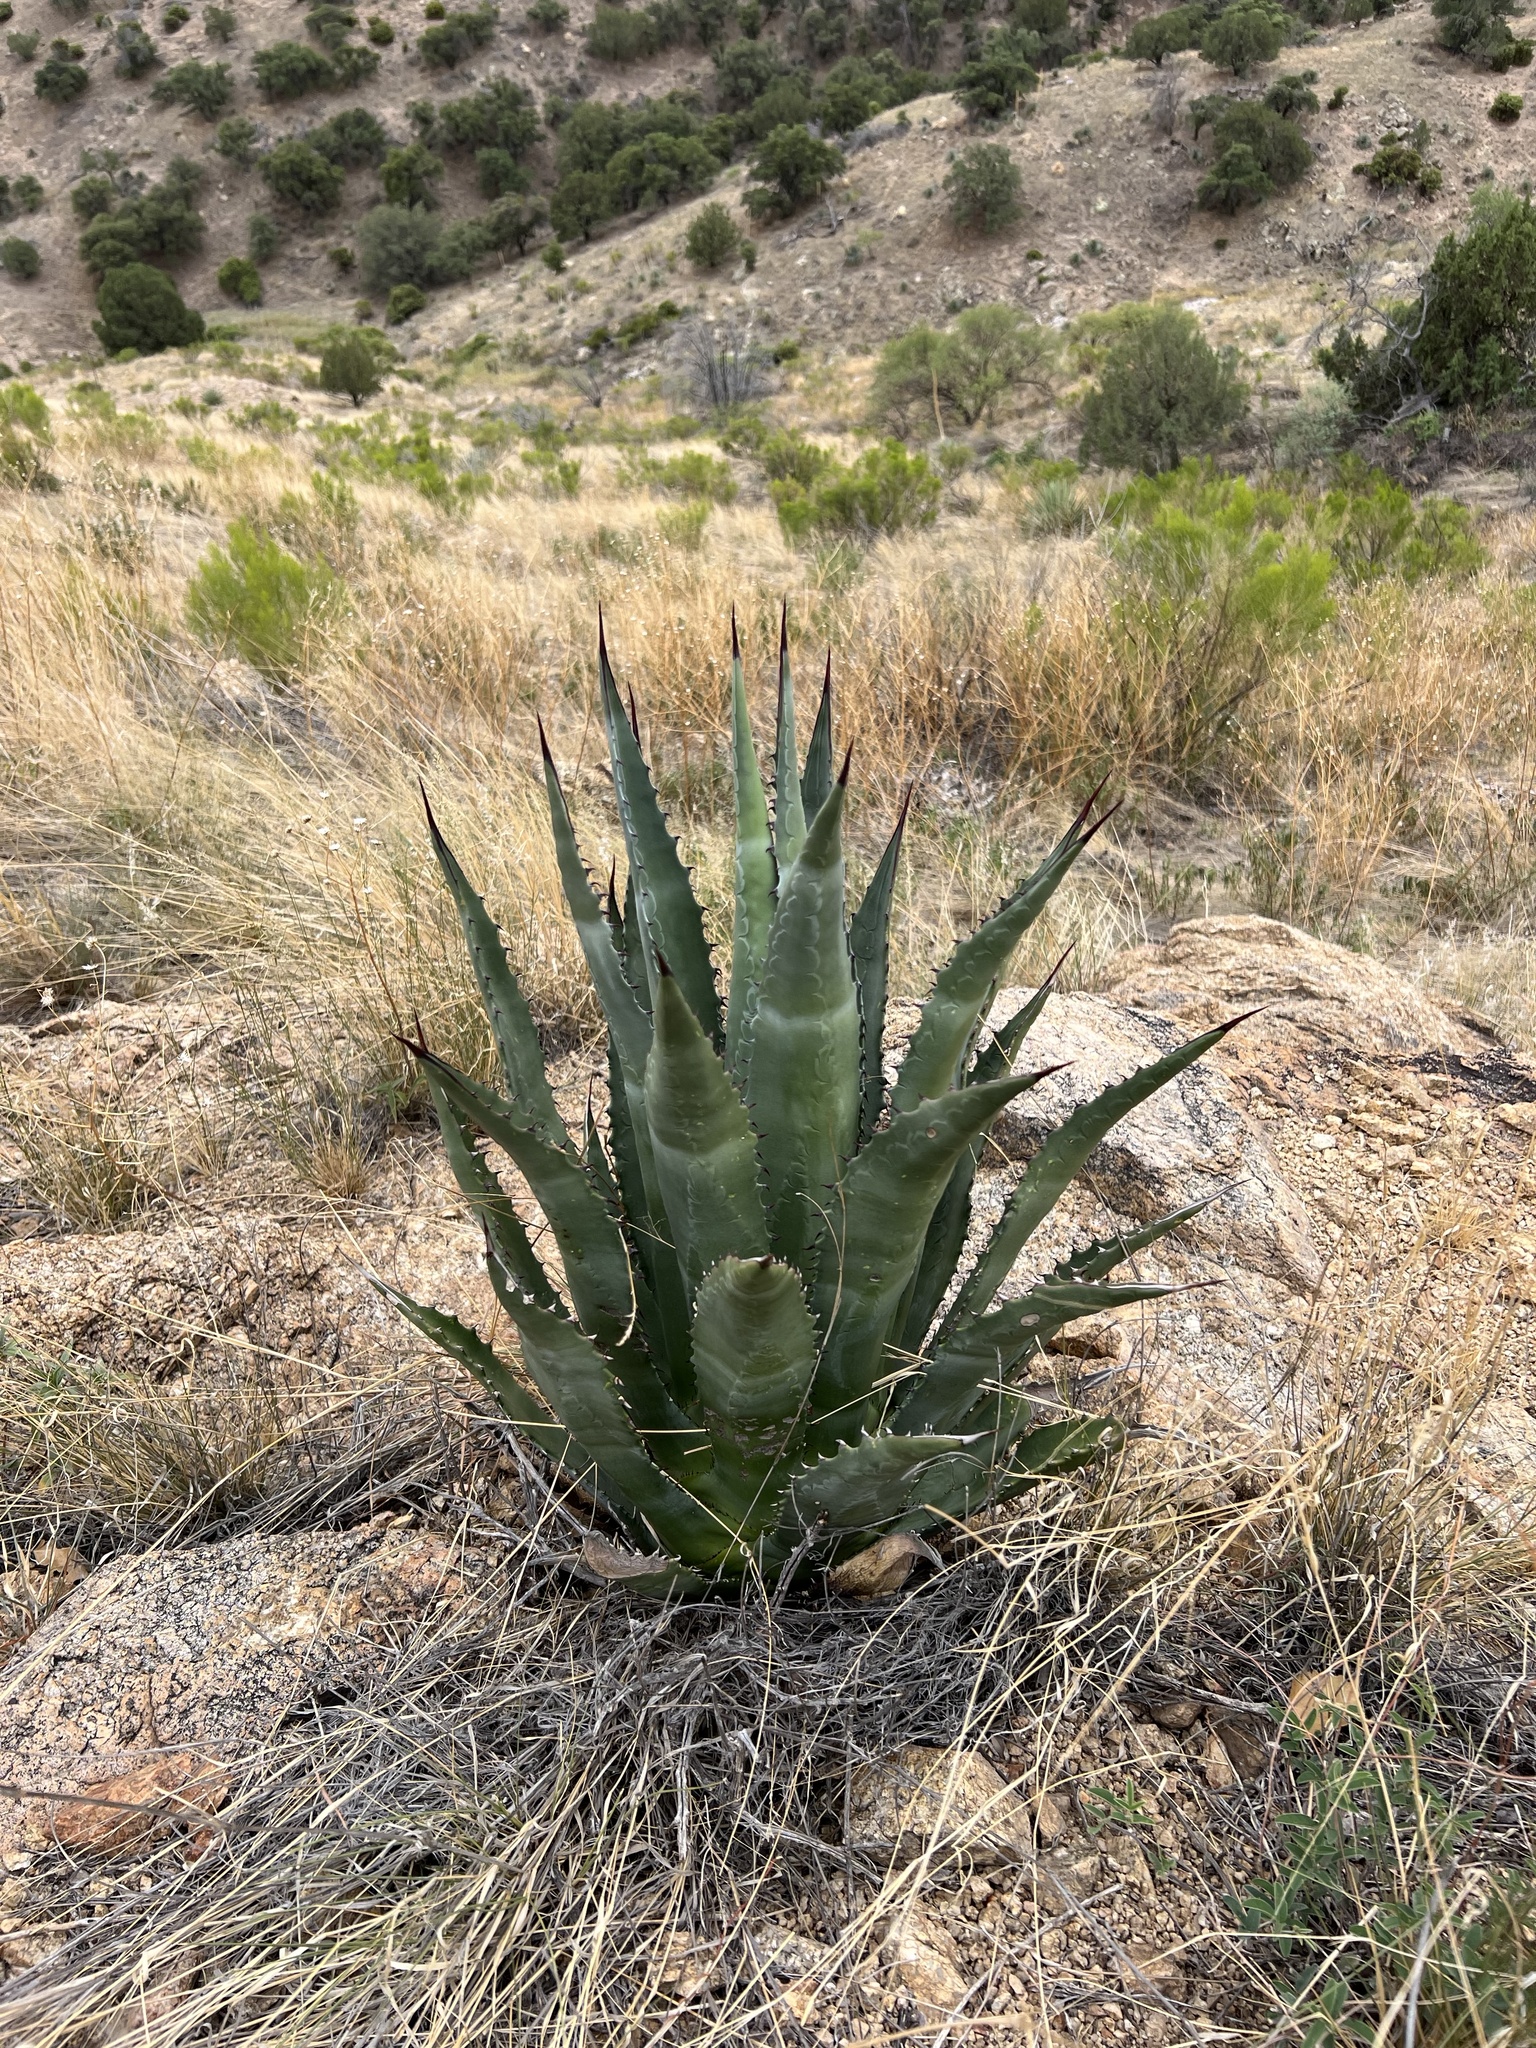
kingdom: Plantae
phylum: Tracheophyta
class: Liliopsida
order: Asparagales
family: Asparagaceae
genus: Agave
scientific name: Agave palmeri
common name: Palmer agave
